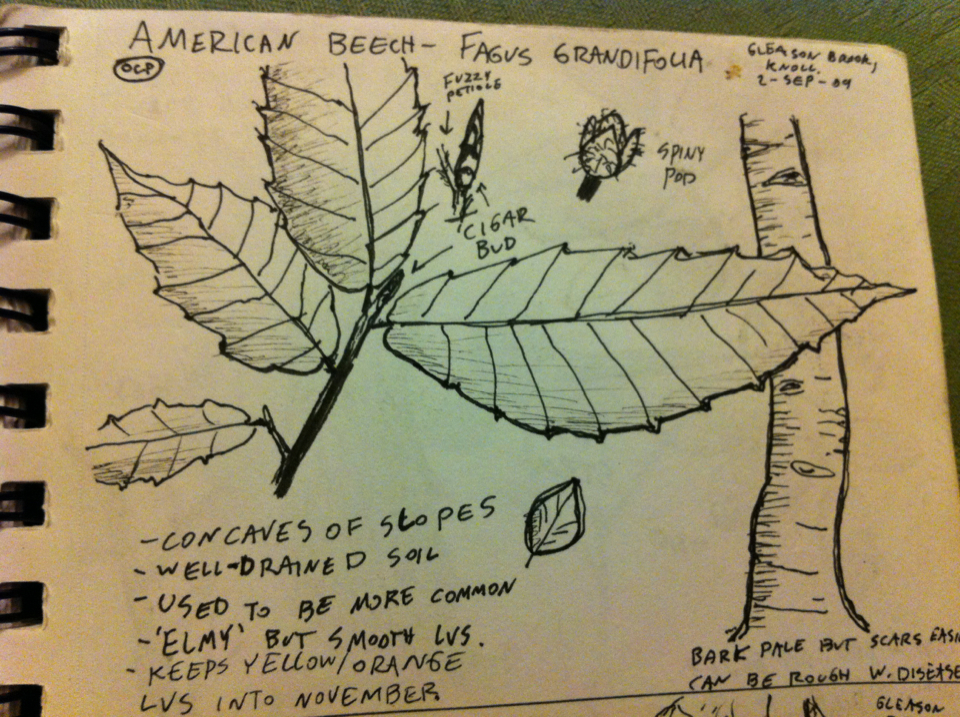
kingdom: Plantae
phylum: Tracheophyta
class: Magnoliopsida
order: Fagales
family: Fagaceae
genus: Fagus
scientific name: Fagus grandifolia
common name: American beech
